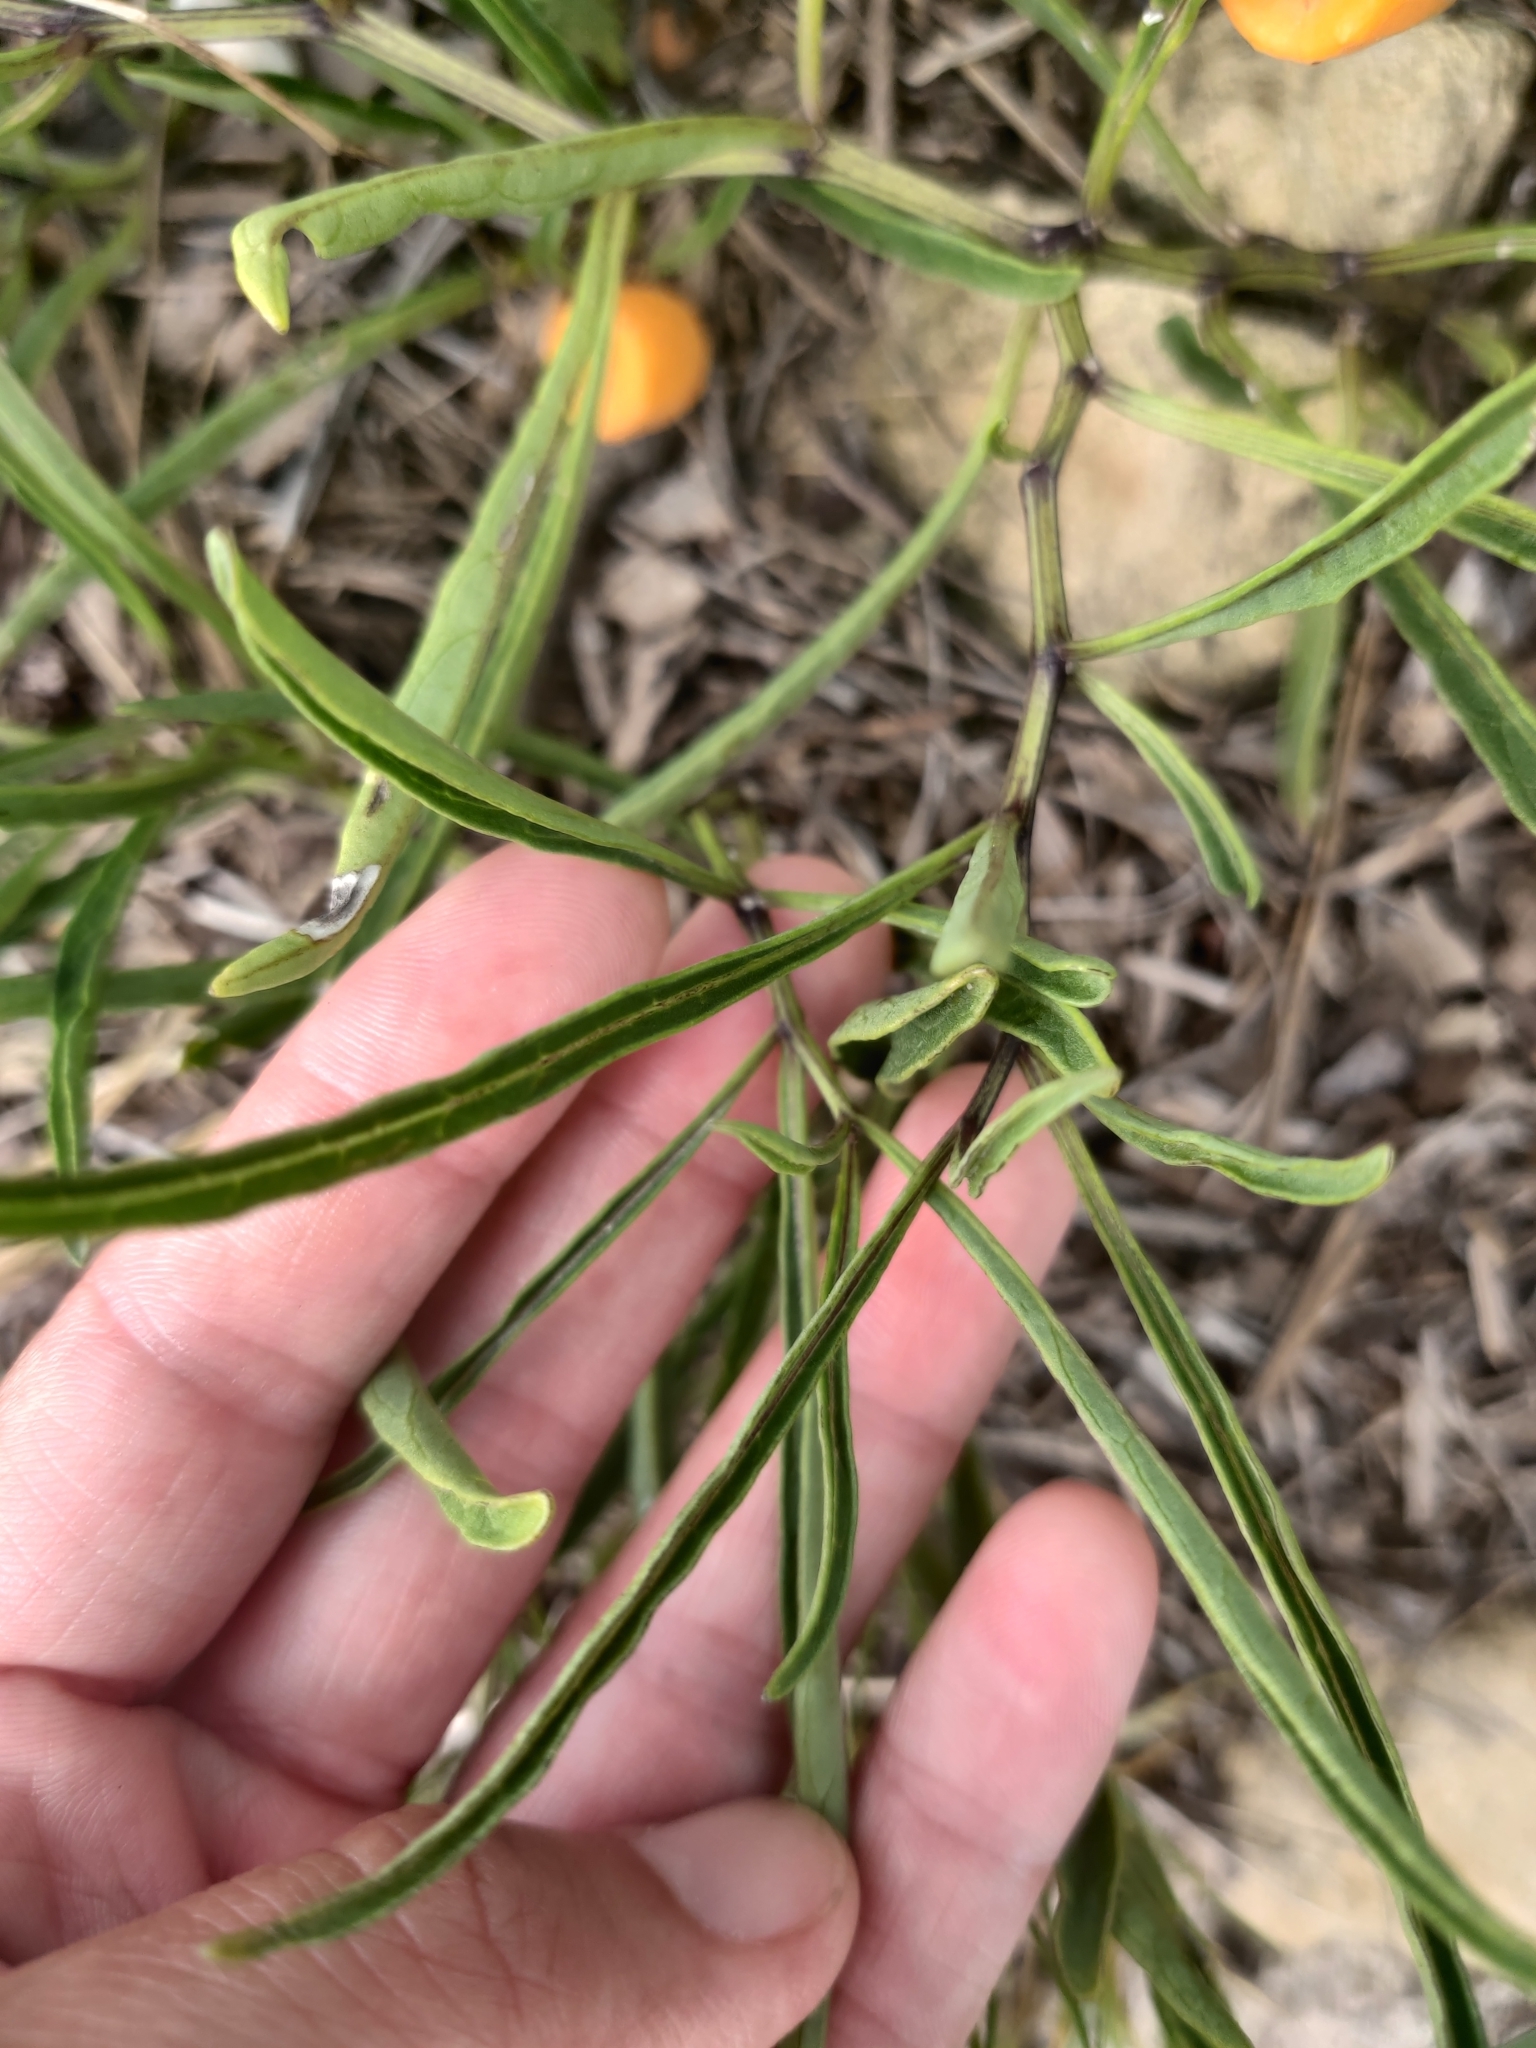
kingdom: Plantae
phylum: Tracheophyta
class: Magnoliopsida
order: Solanales
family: Solanaceae
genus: Physalis
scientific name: Physalis angustifolia
